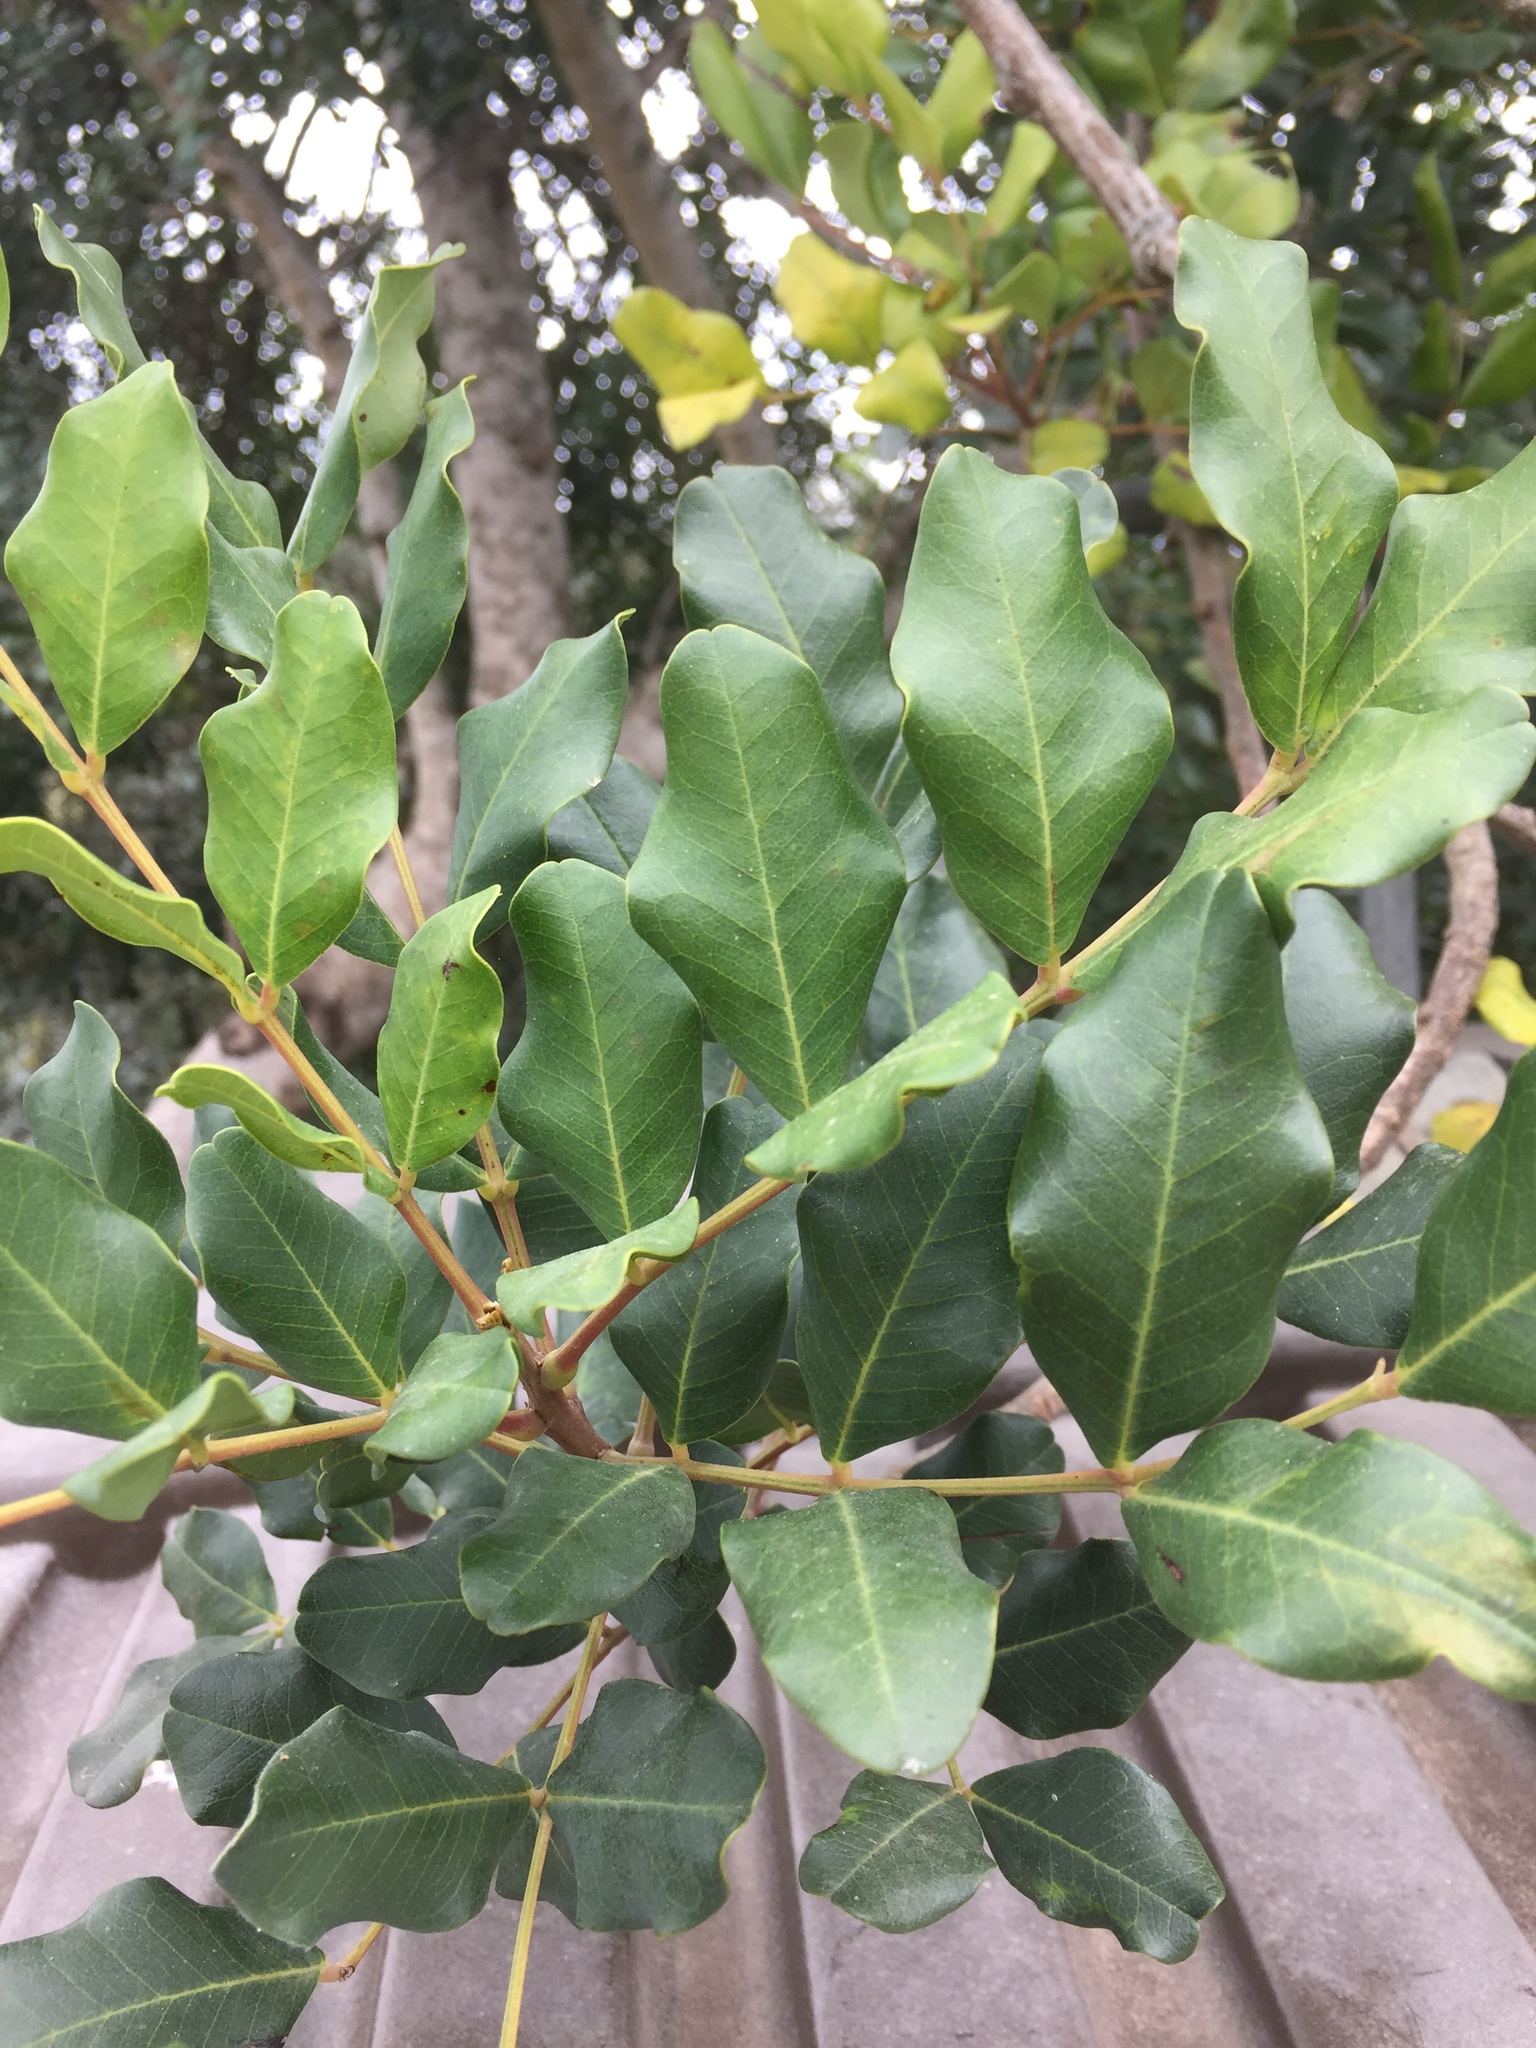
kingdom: Plantae
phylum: Tracheophyta
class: Magnoliopsida
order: Fabales
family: Fabaceae
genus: Ceratonia
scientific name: Ceratonia siliqua
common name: Carob
